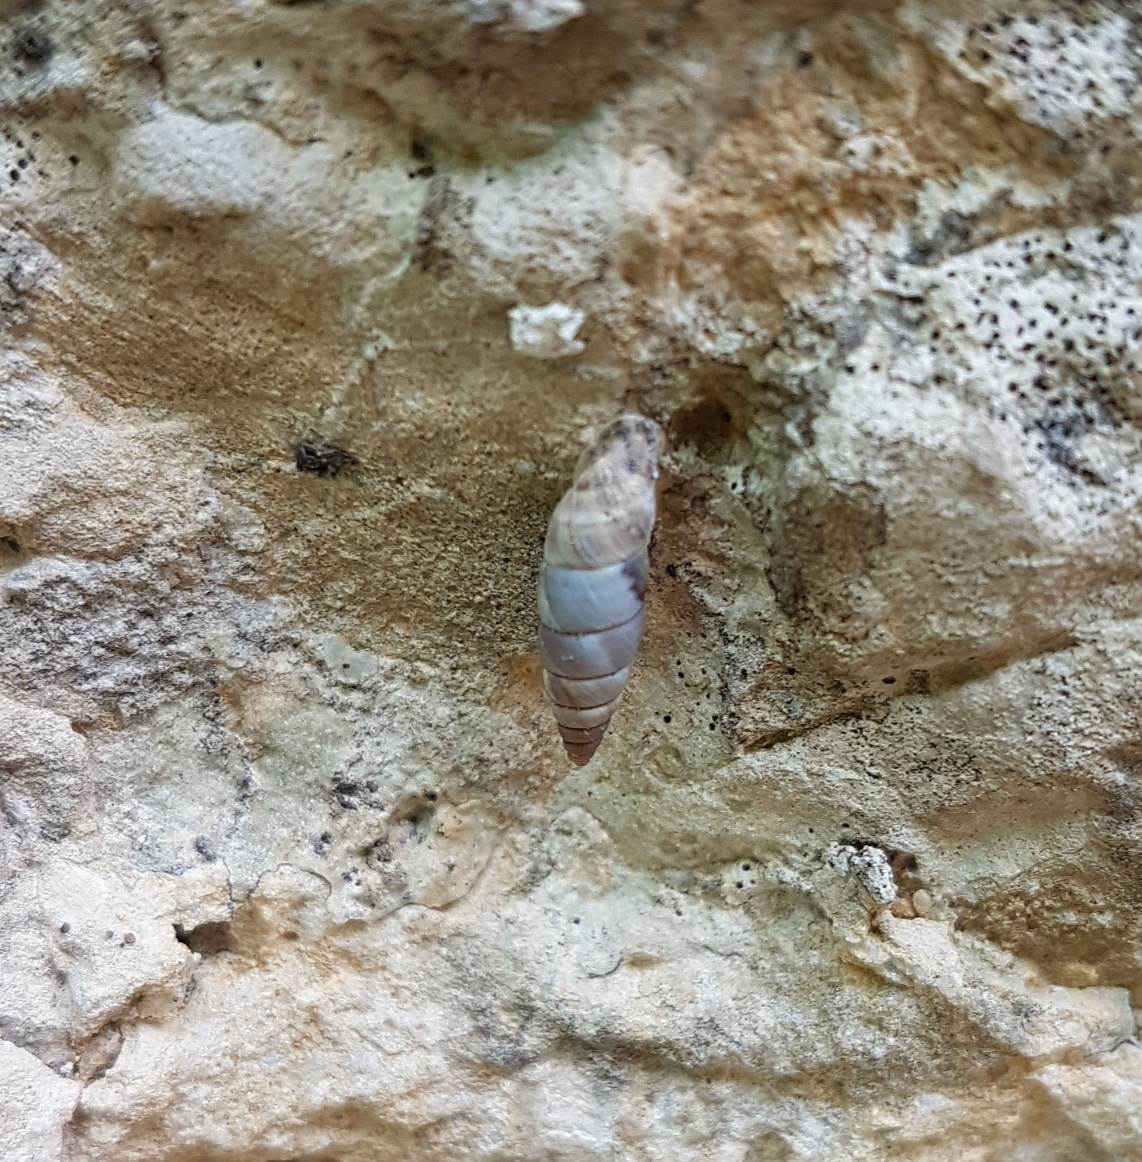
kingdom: Animalia
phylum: Mollusca
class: Gastropoda
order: Stylommatophora
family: Chondrinidae
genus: Solatopupa
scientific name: Solatopupa similis
